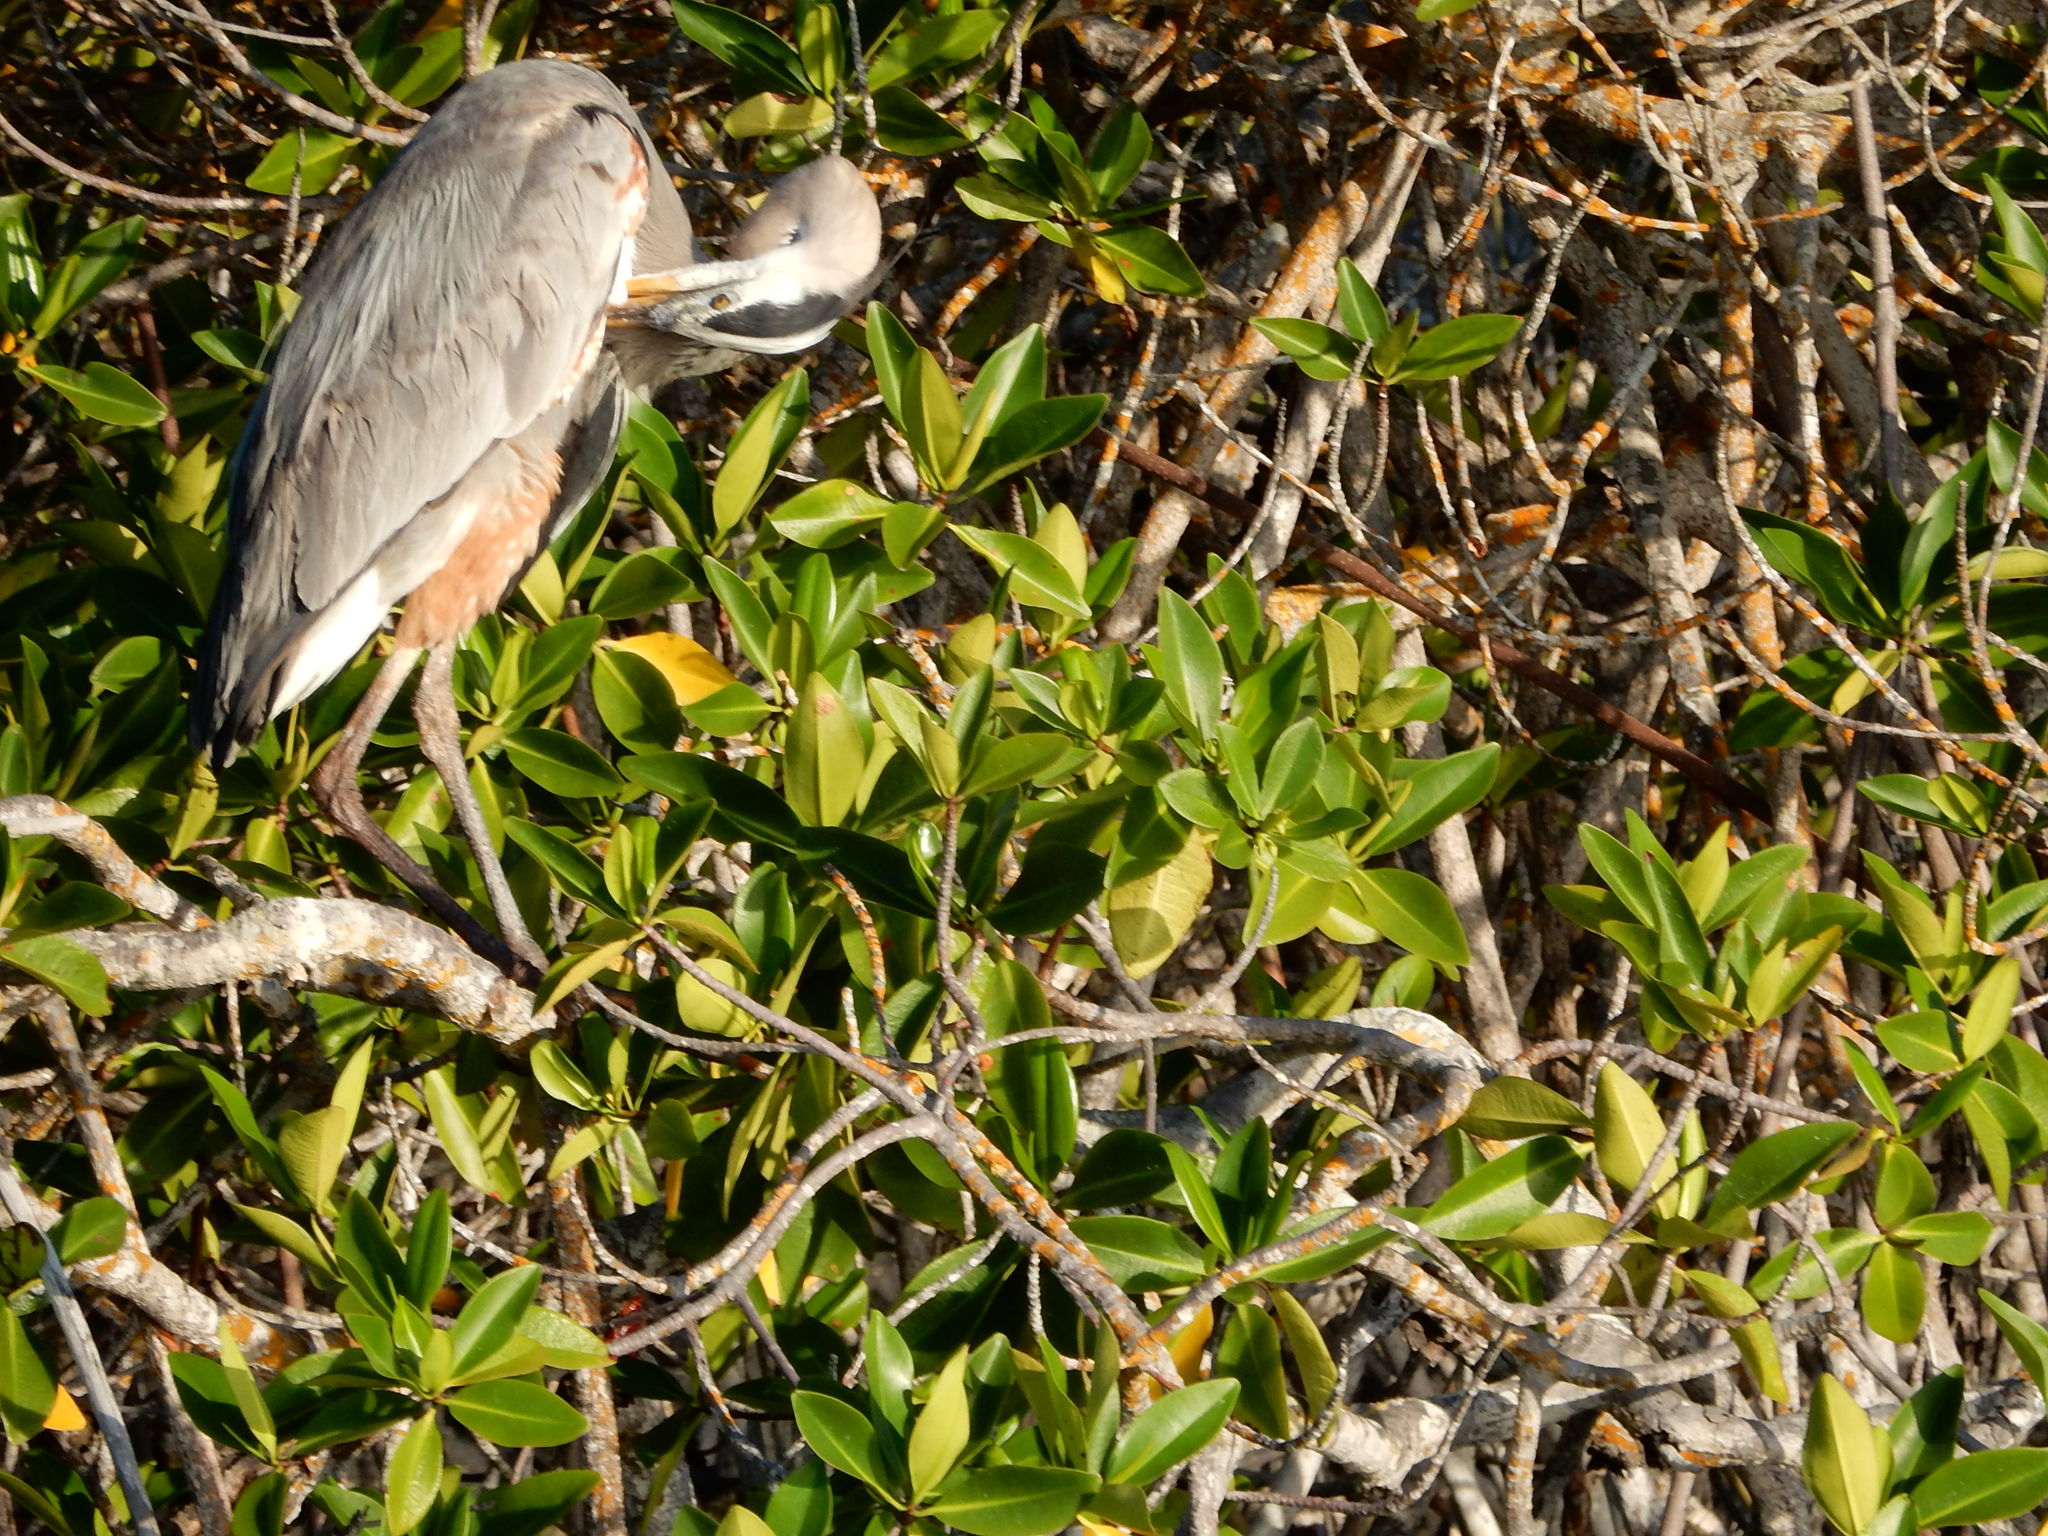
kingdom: Animalia
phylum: Chordata
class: Aves
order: Pelecaniformes
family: Ardeidae
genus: Ardea
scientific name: Ardea herodias
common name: Great blue heron
